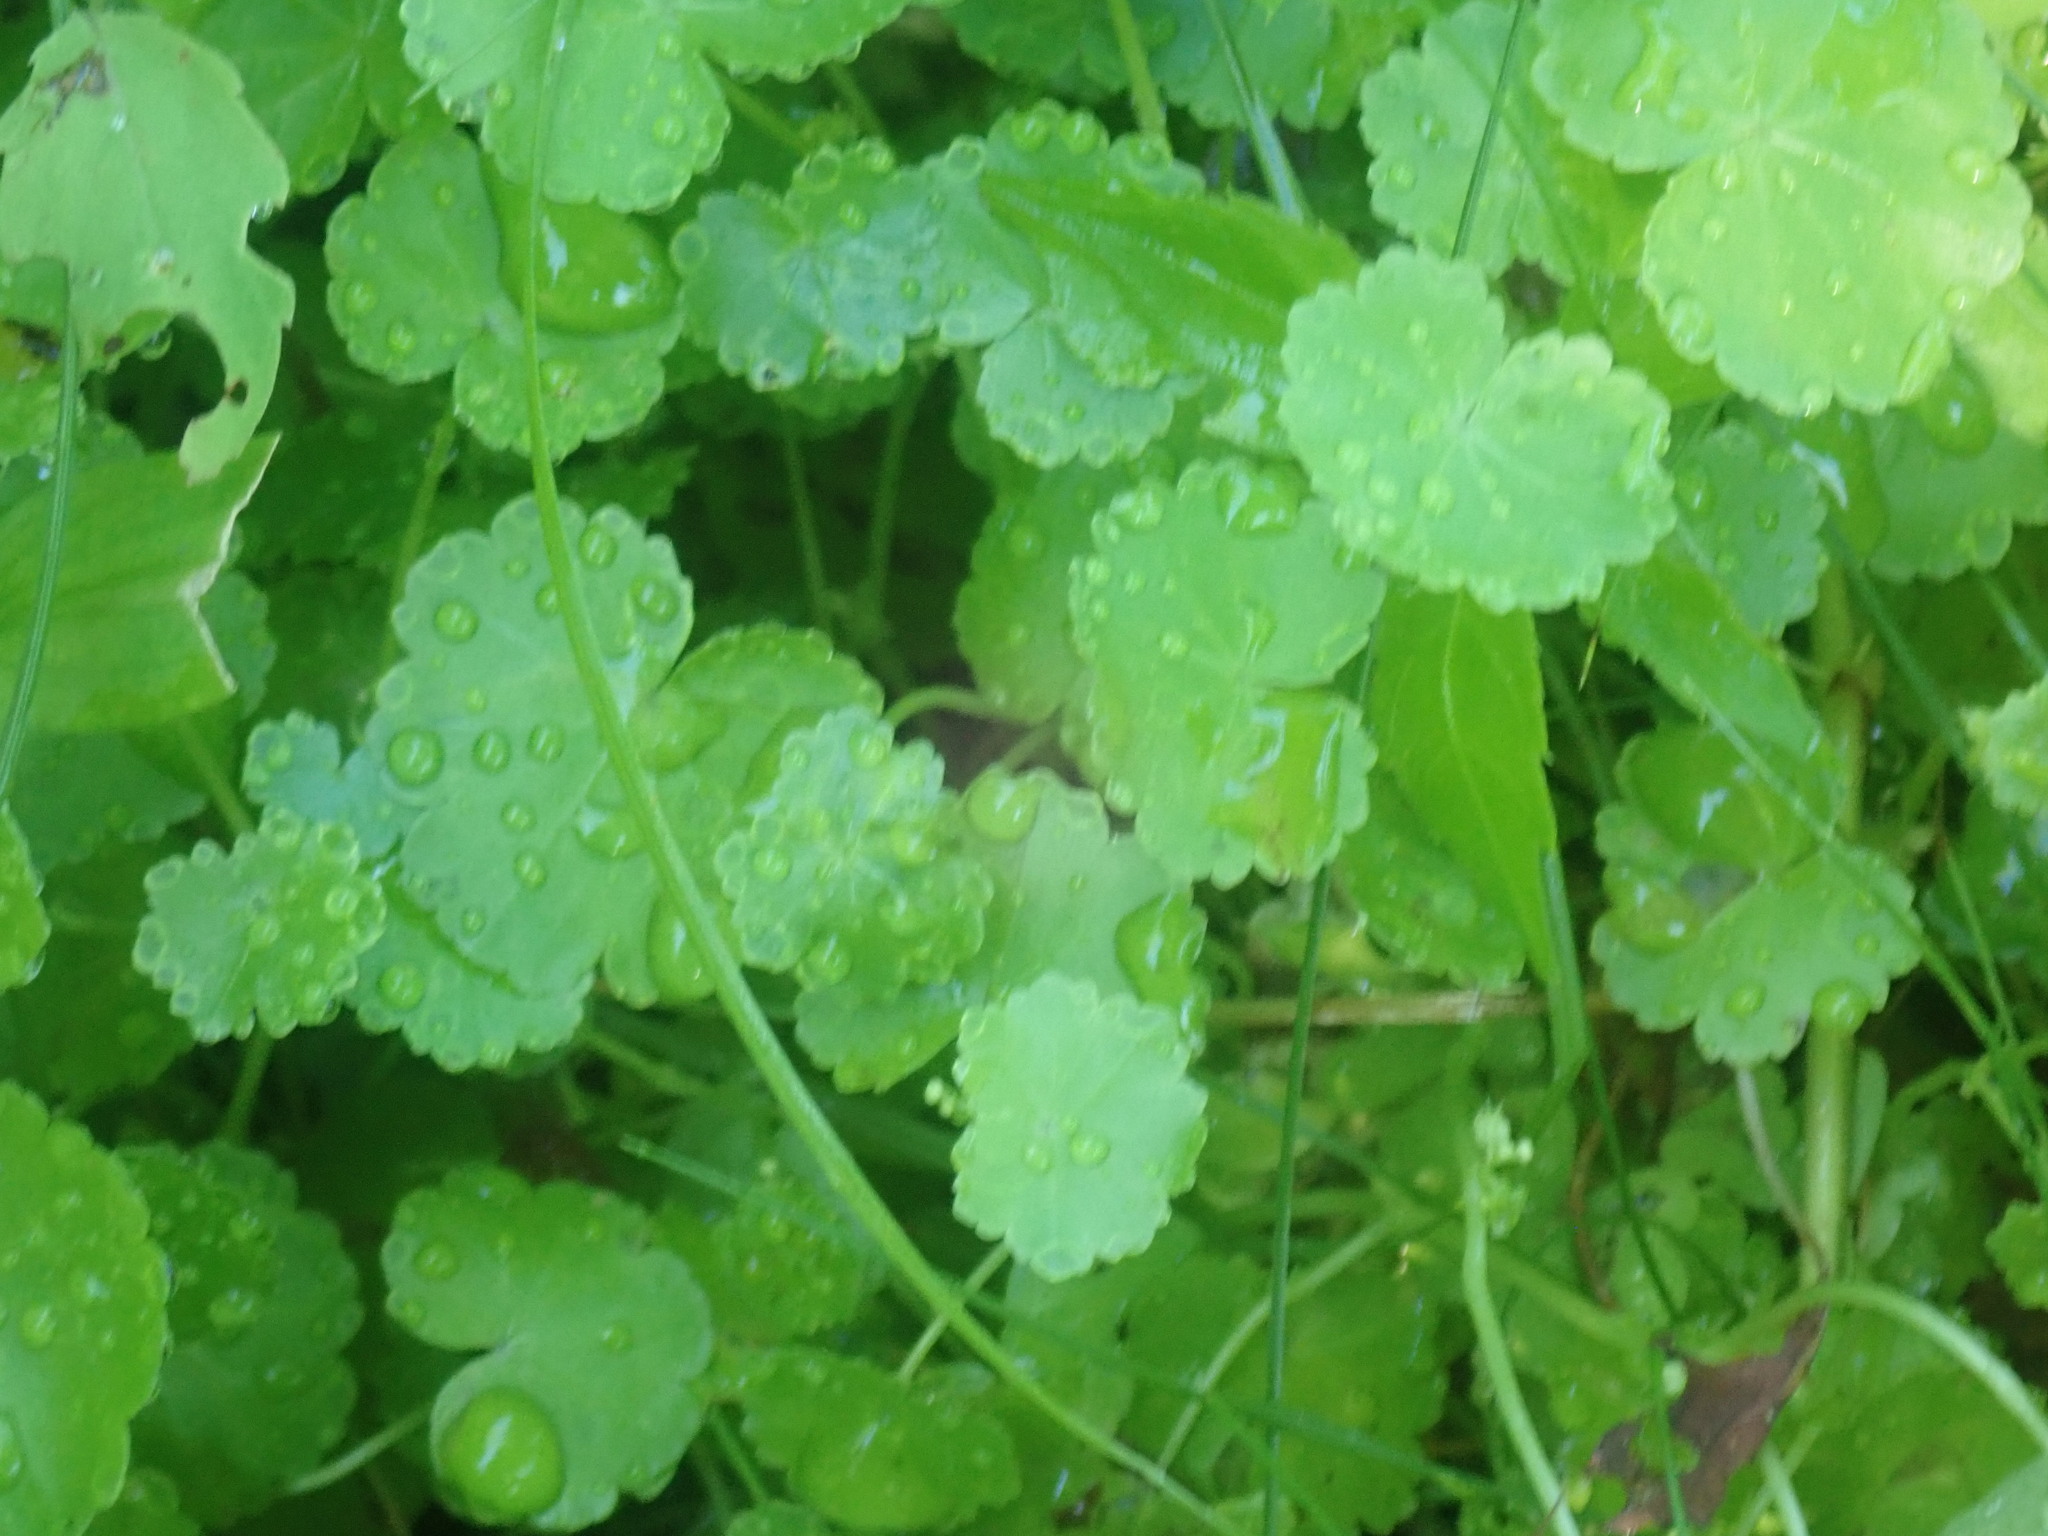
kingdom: Plantae
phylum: Tracheophyta
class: Magnoliopsida
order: Apiales
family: Araliaceae
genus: Hydrocotyle
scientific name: Hydrocotyle americana
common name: American water-pennywort
